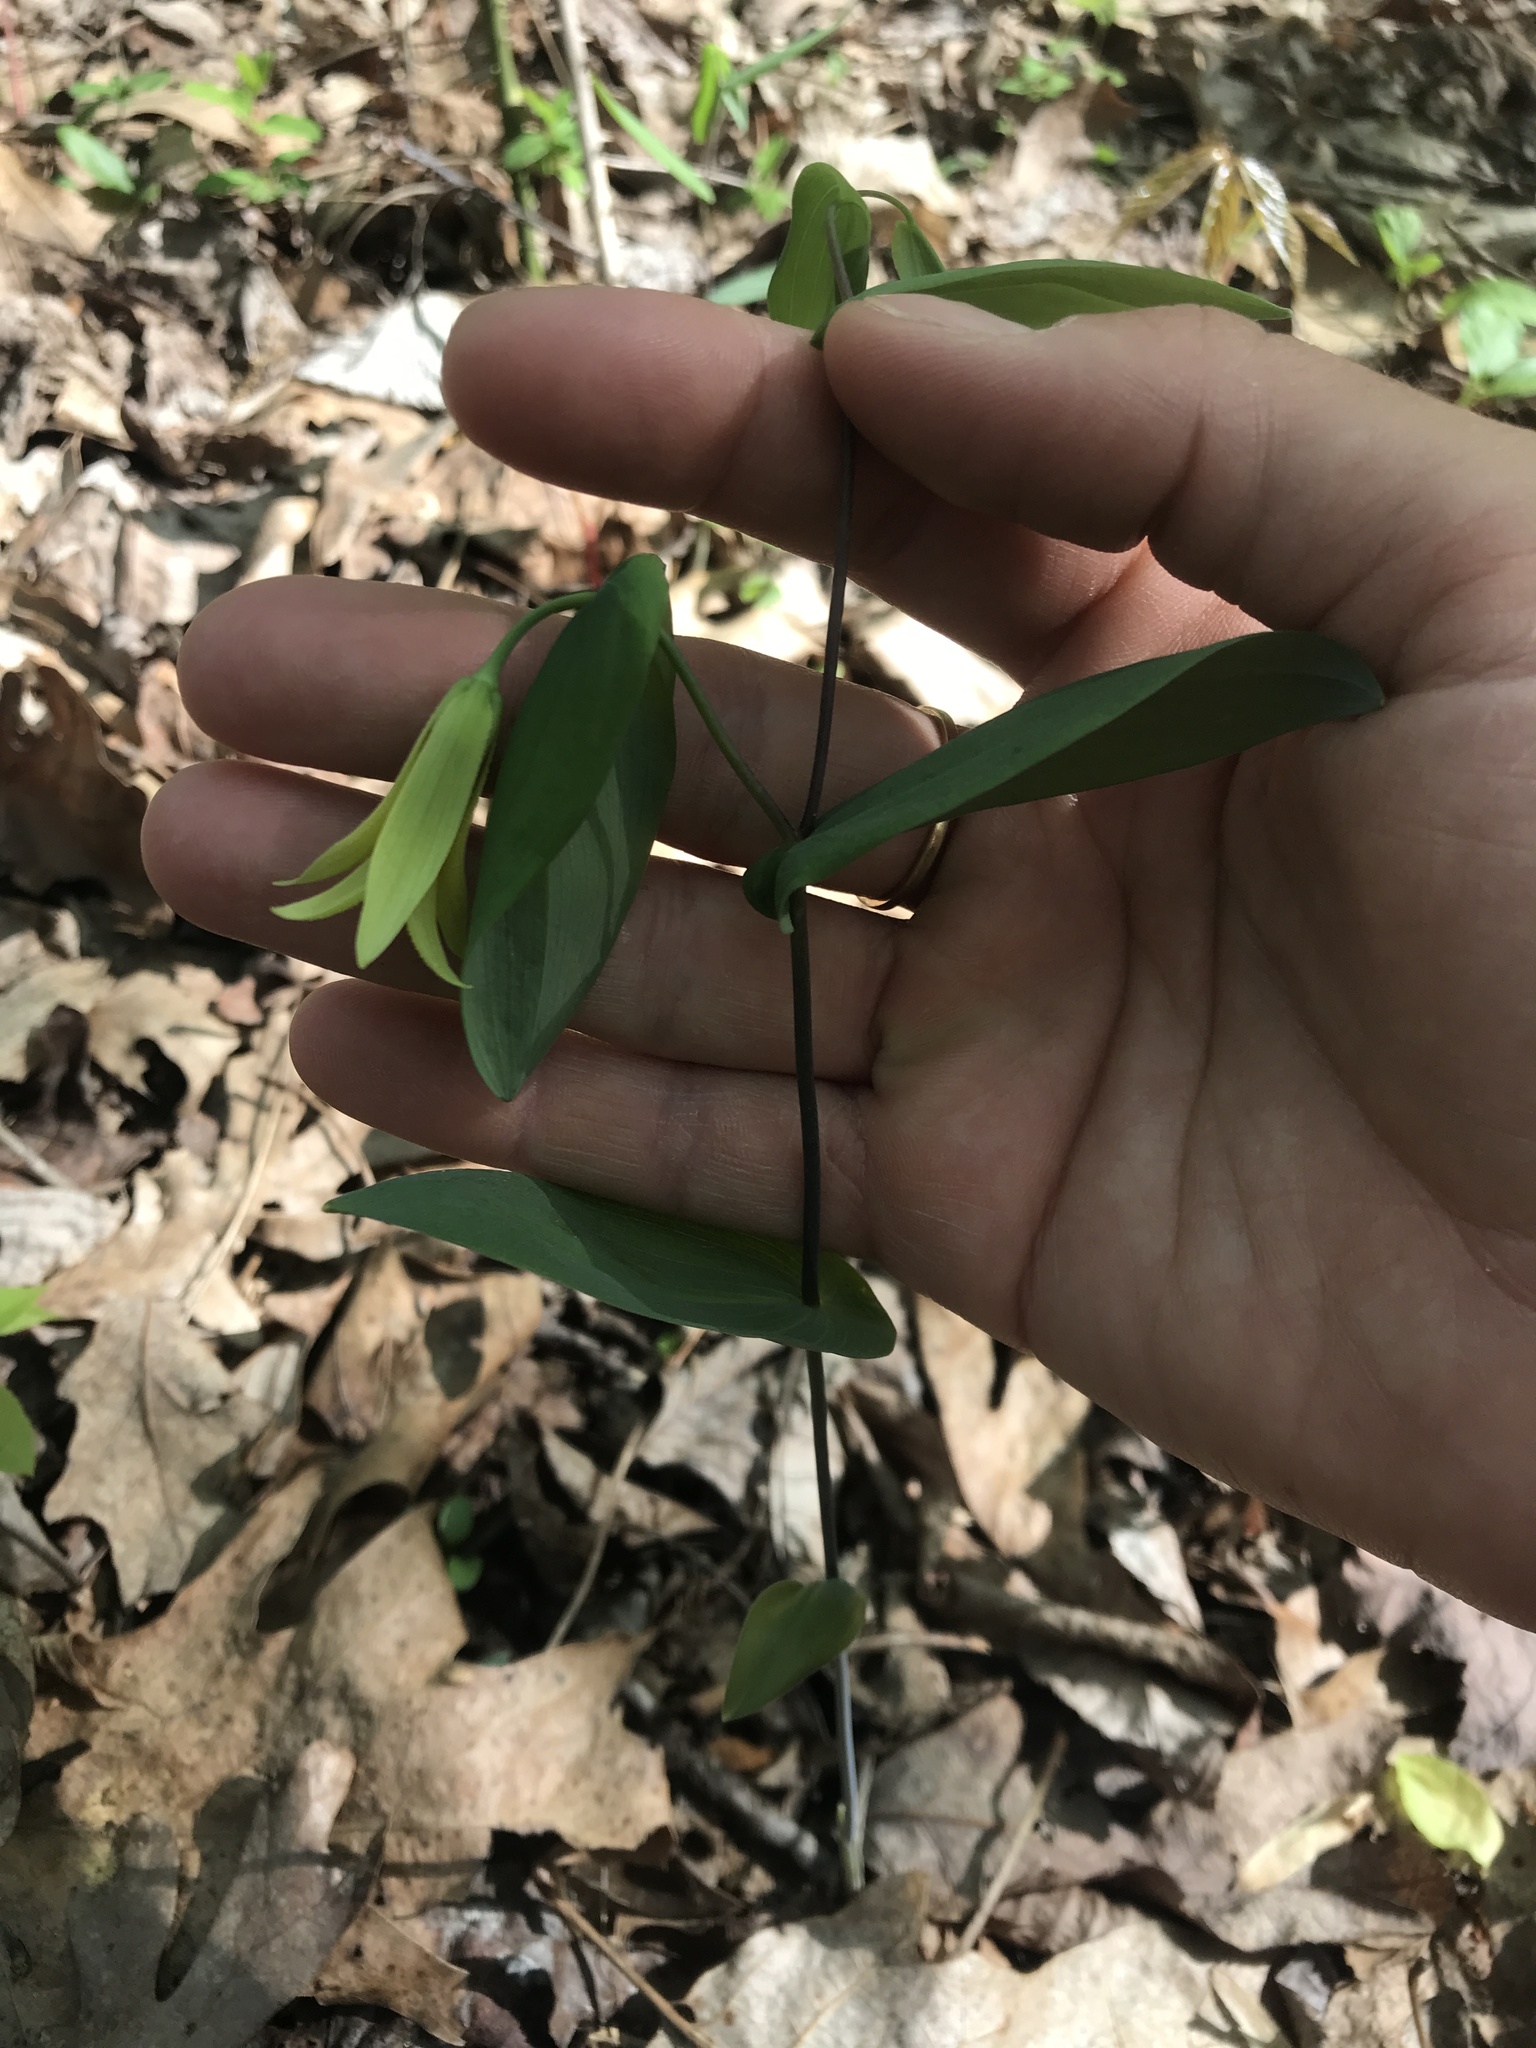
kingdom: Plantae
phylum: Tracheophyta
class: Liliopsida
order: Liliales
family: Colchicaceae
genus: Uvularia
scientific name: Uvularia perfoliata
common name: Perfoliate bellwort
